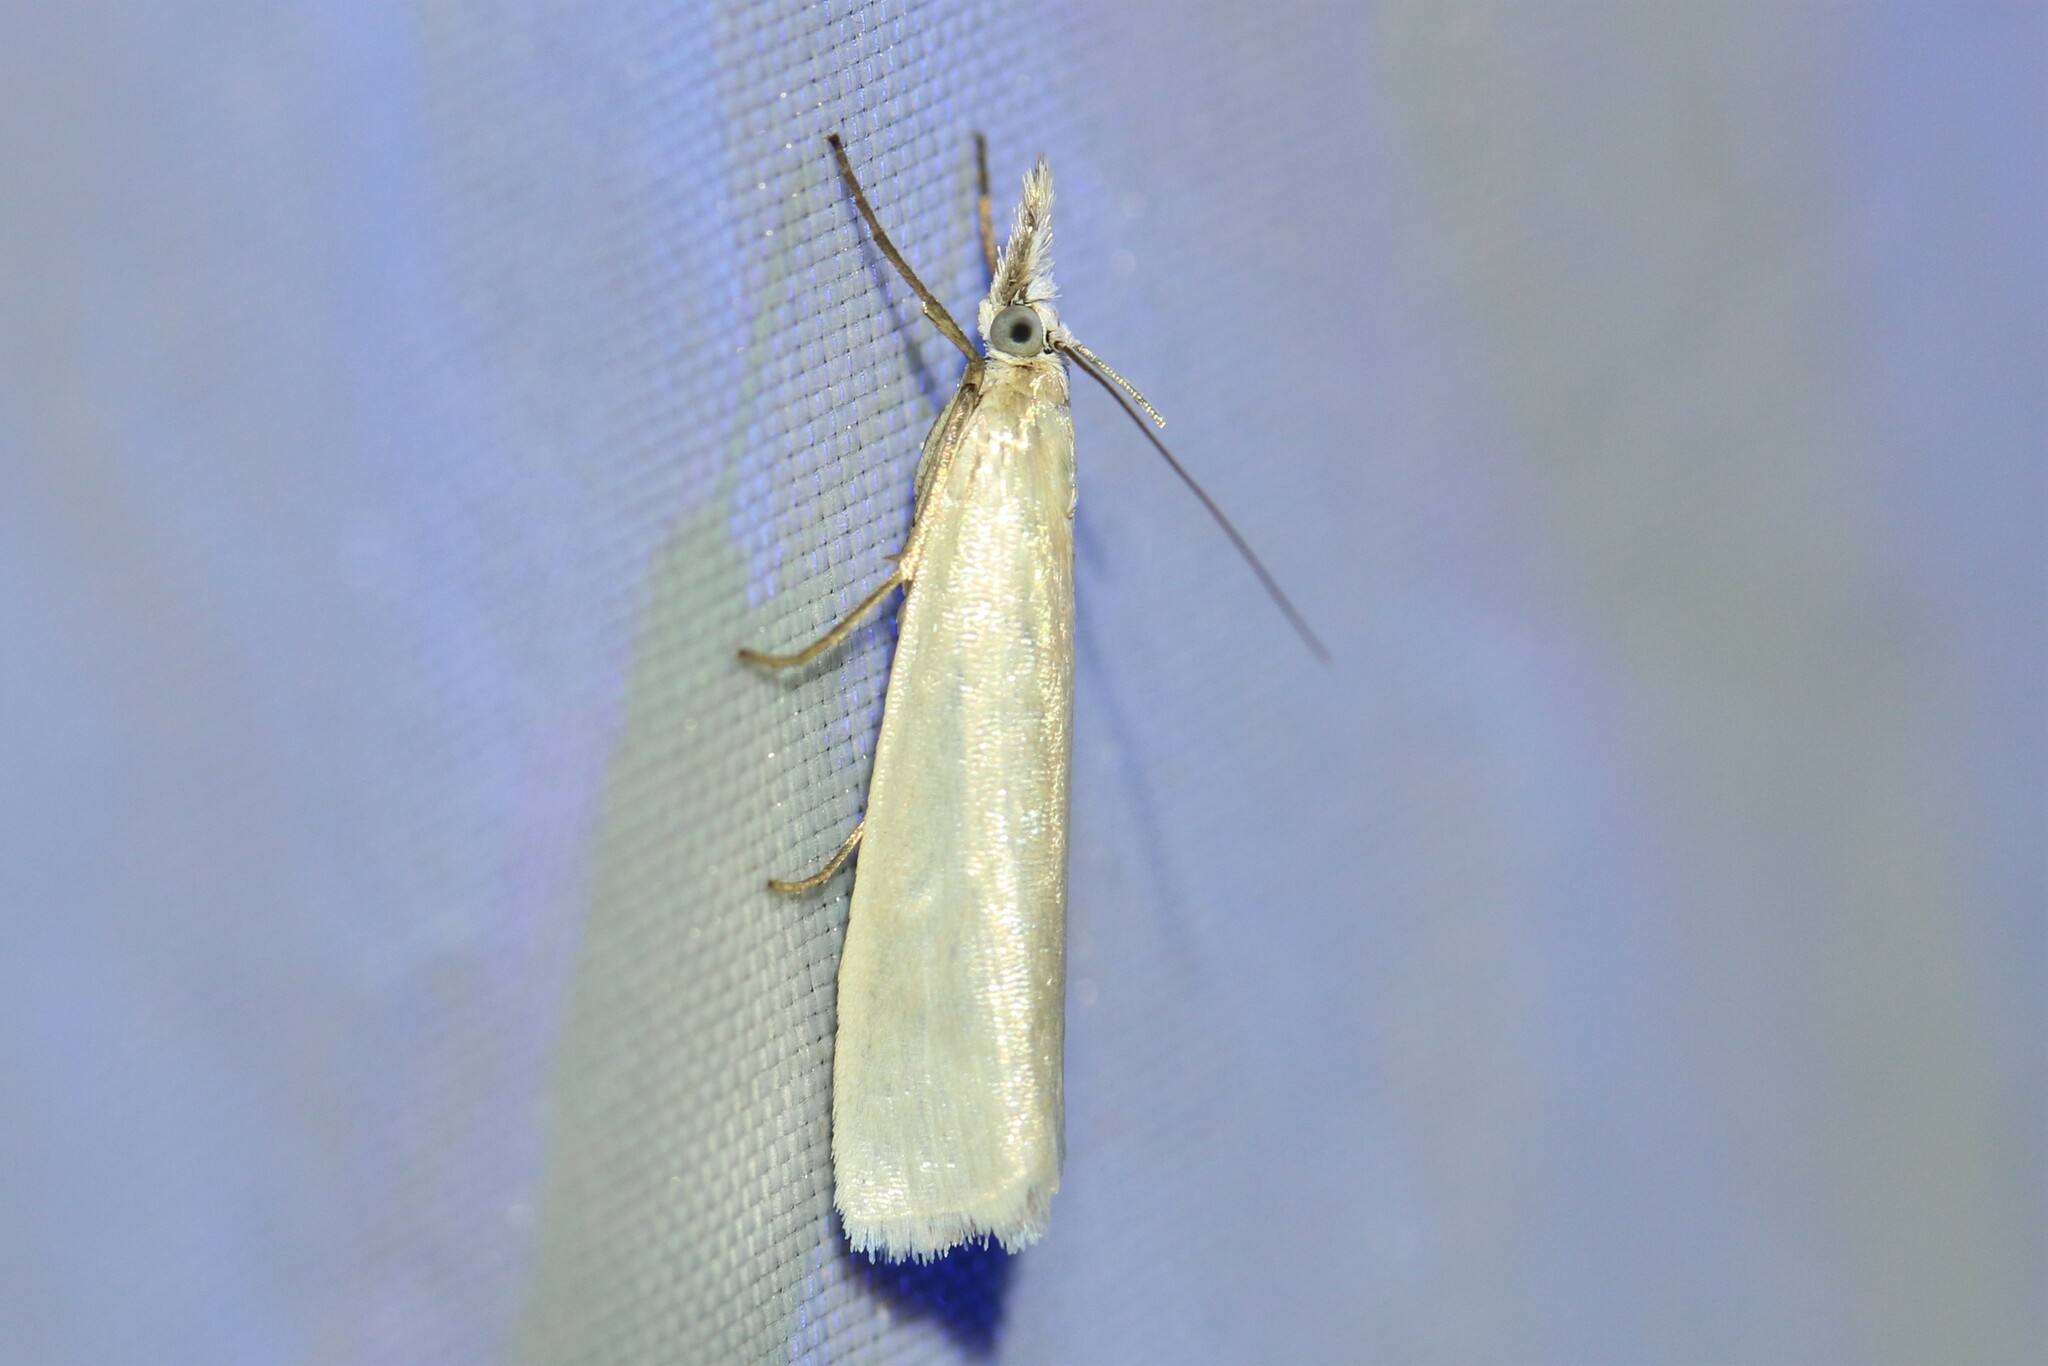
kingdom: Animalia
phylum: Arthropoda
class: Insecta
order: Lepidoptera
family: Crambidae
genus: Crambus
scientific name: Crambus perlellus
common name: Yellow satin veneer
